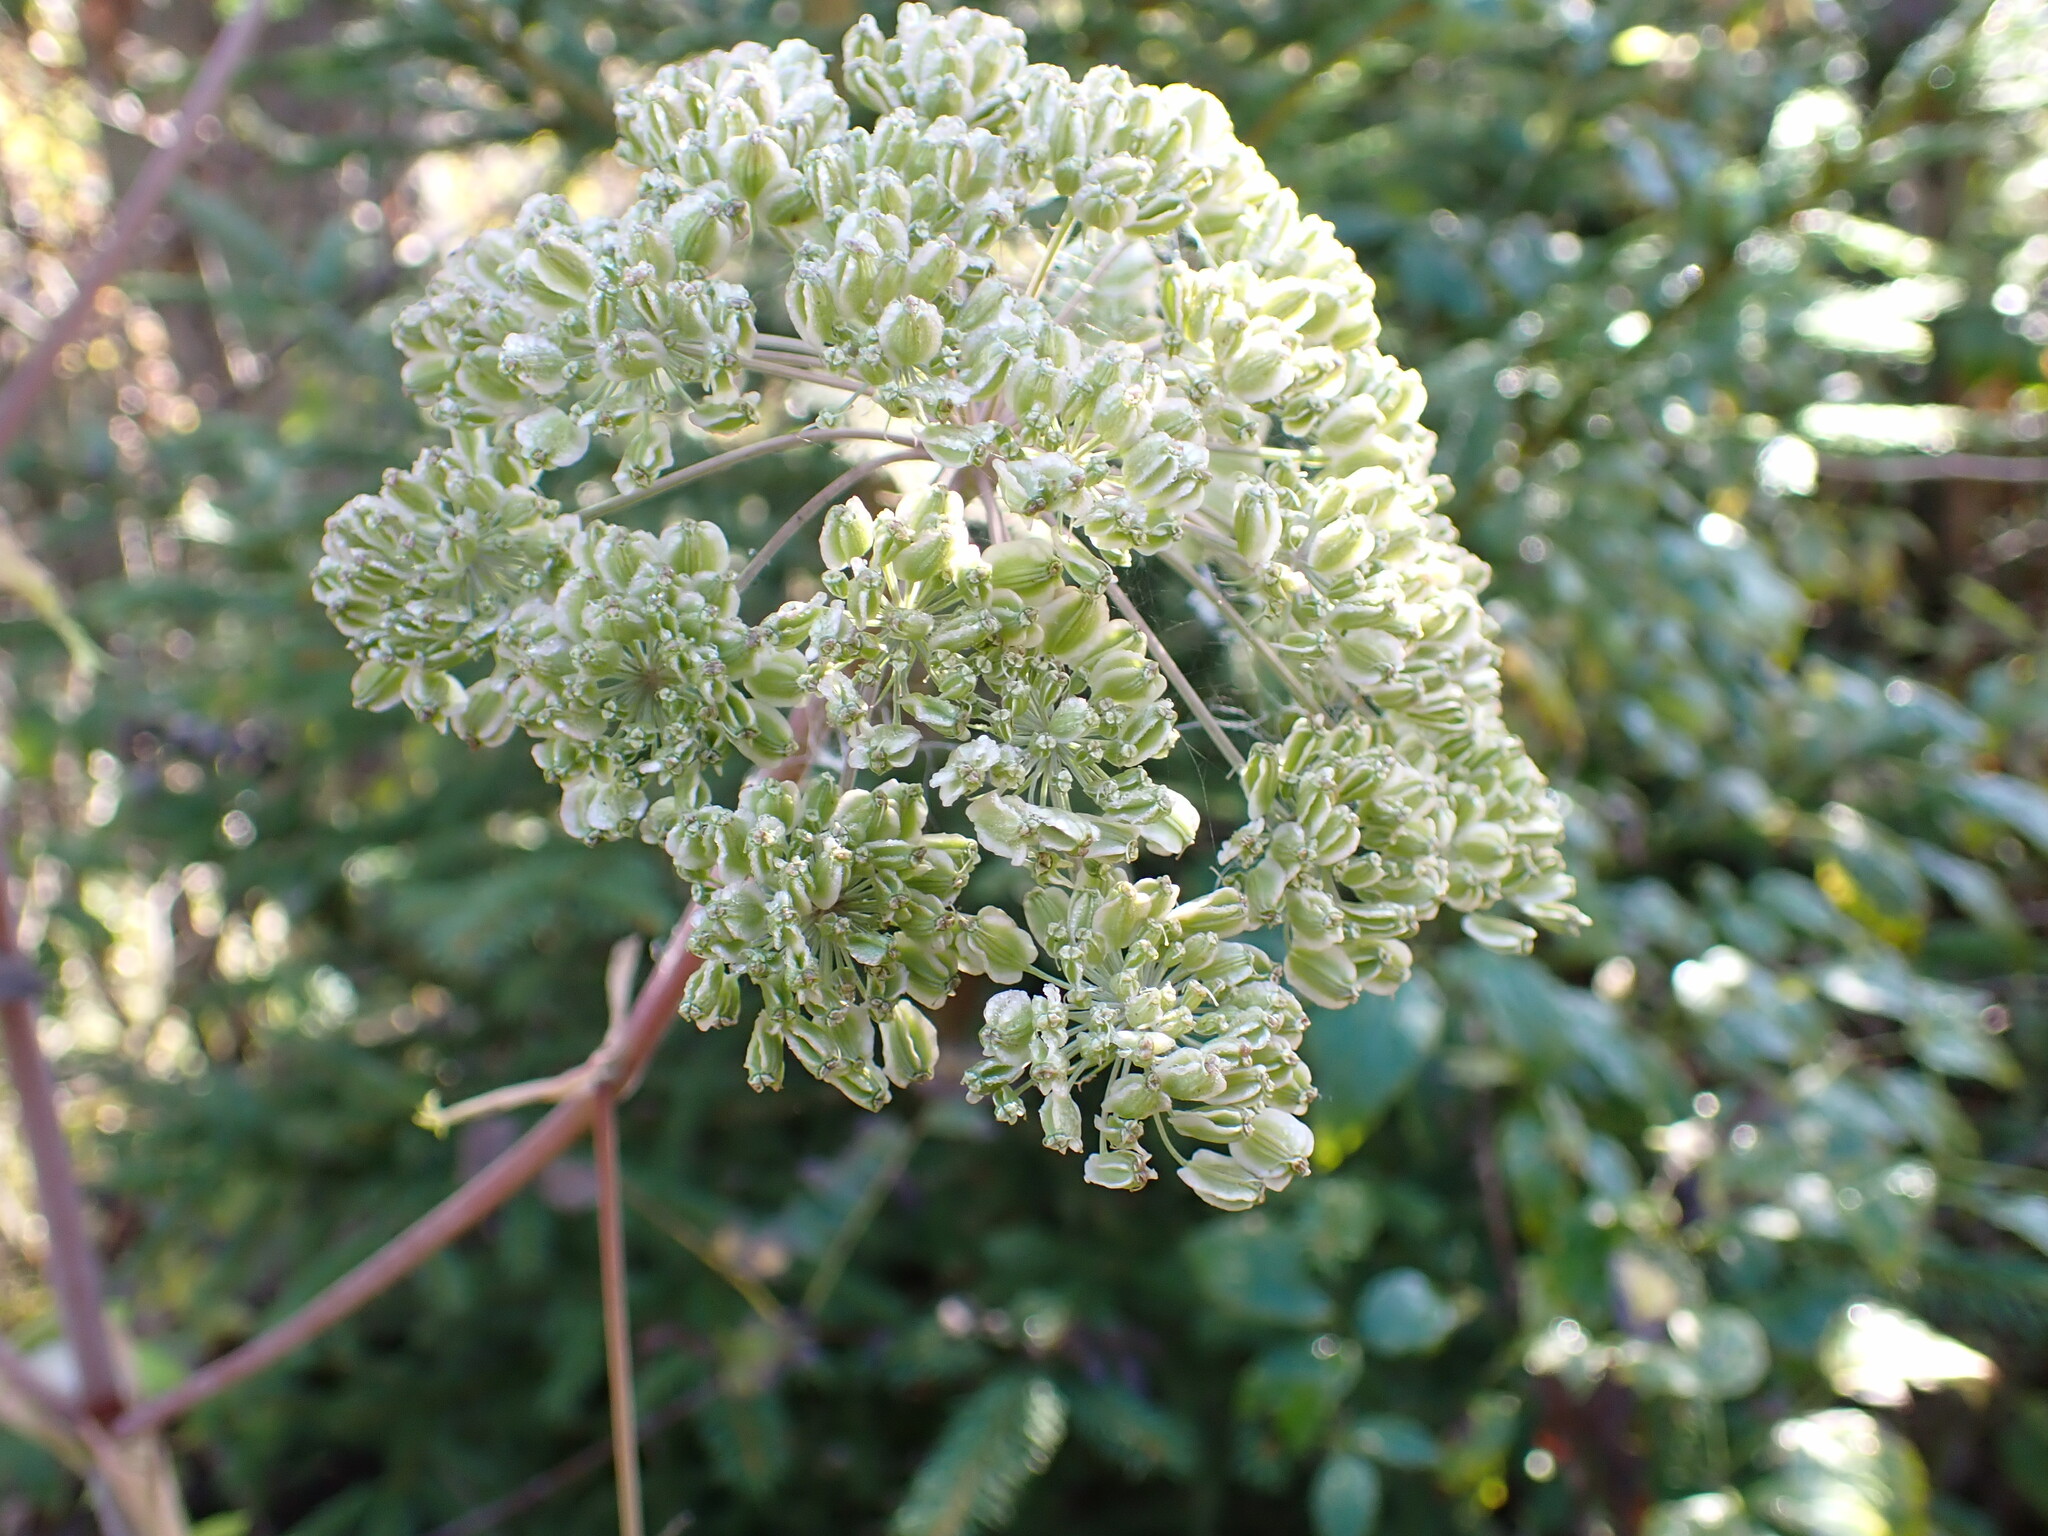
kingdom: Plantae
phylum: Tracheophyta
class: Magnoliopsida
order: Apiales
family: Apiaceae
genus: Angelica
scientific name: Angelica sylvestris
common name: Wild angelica
